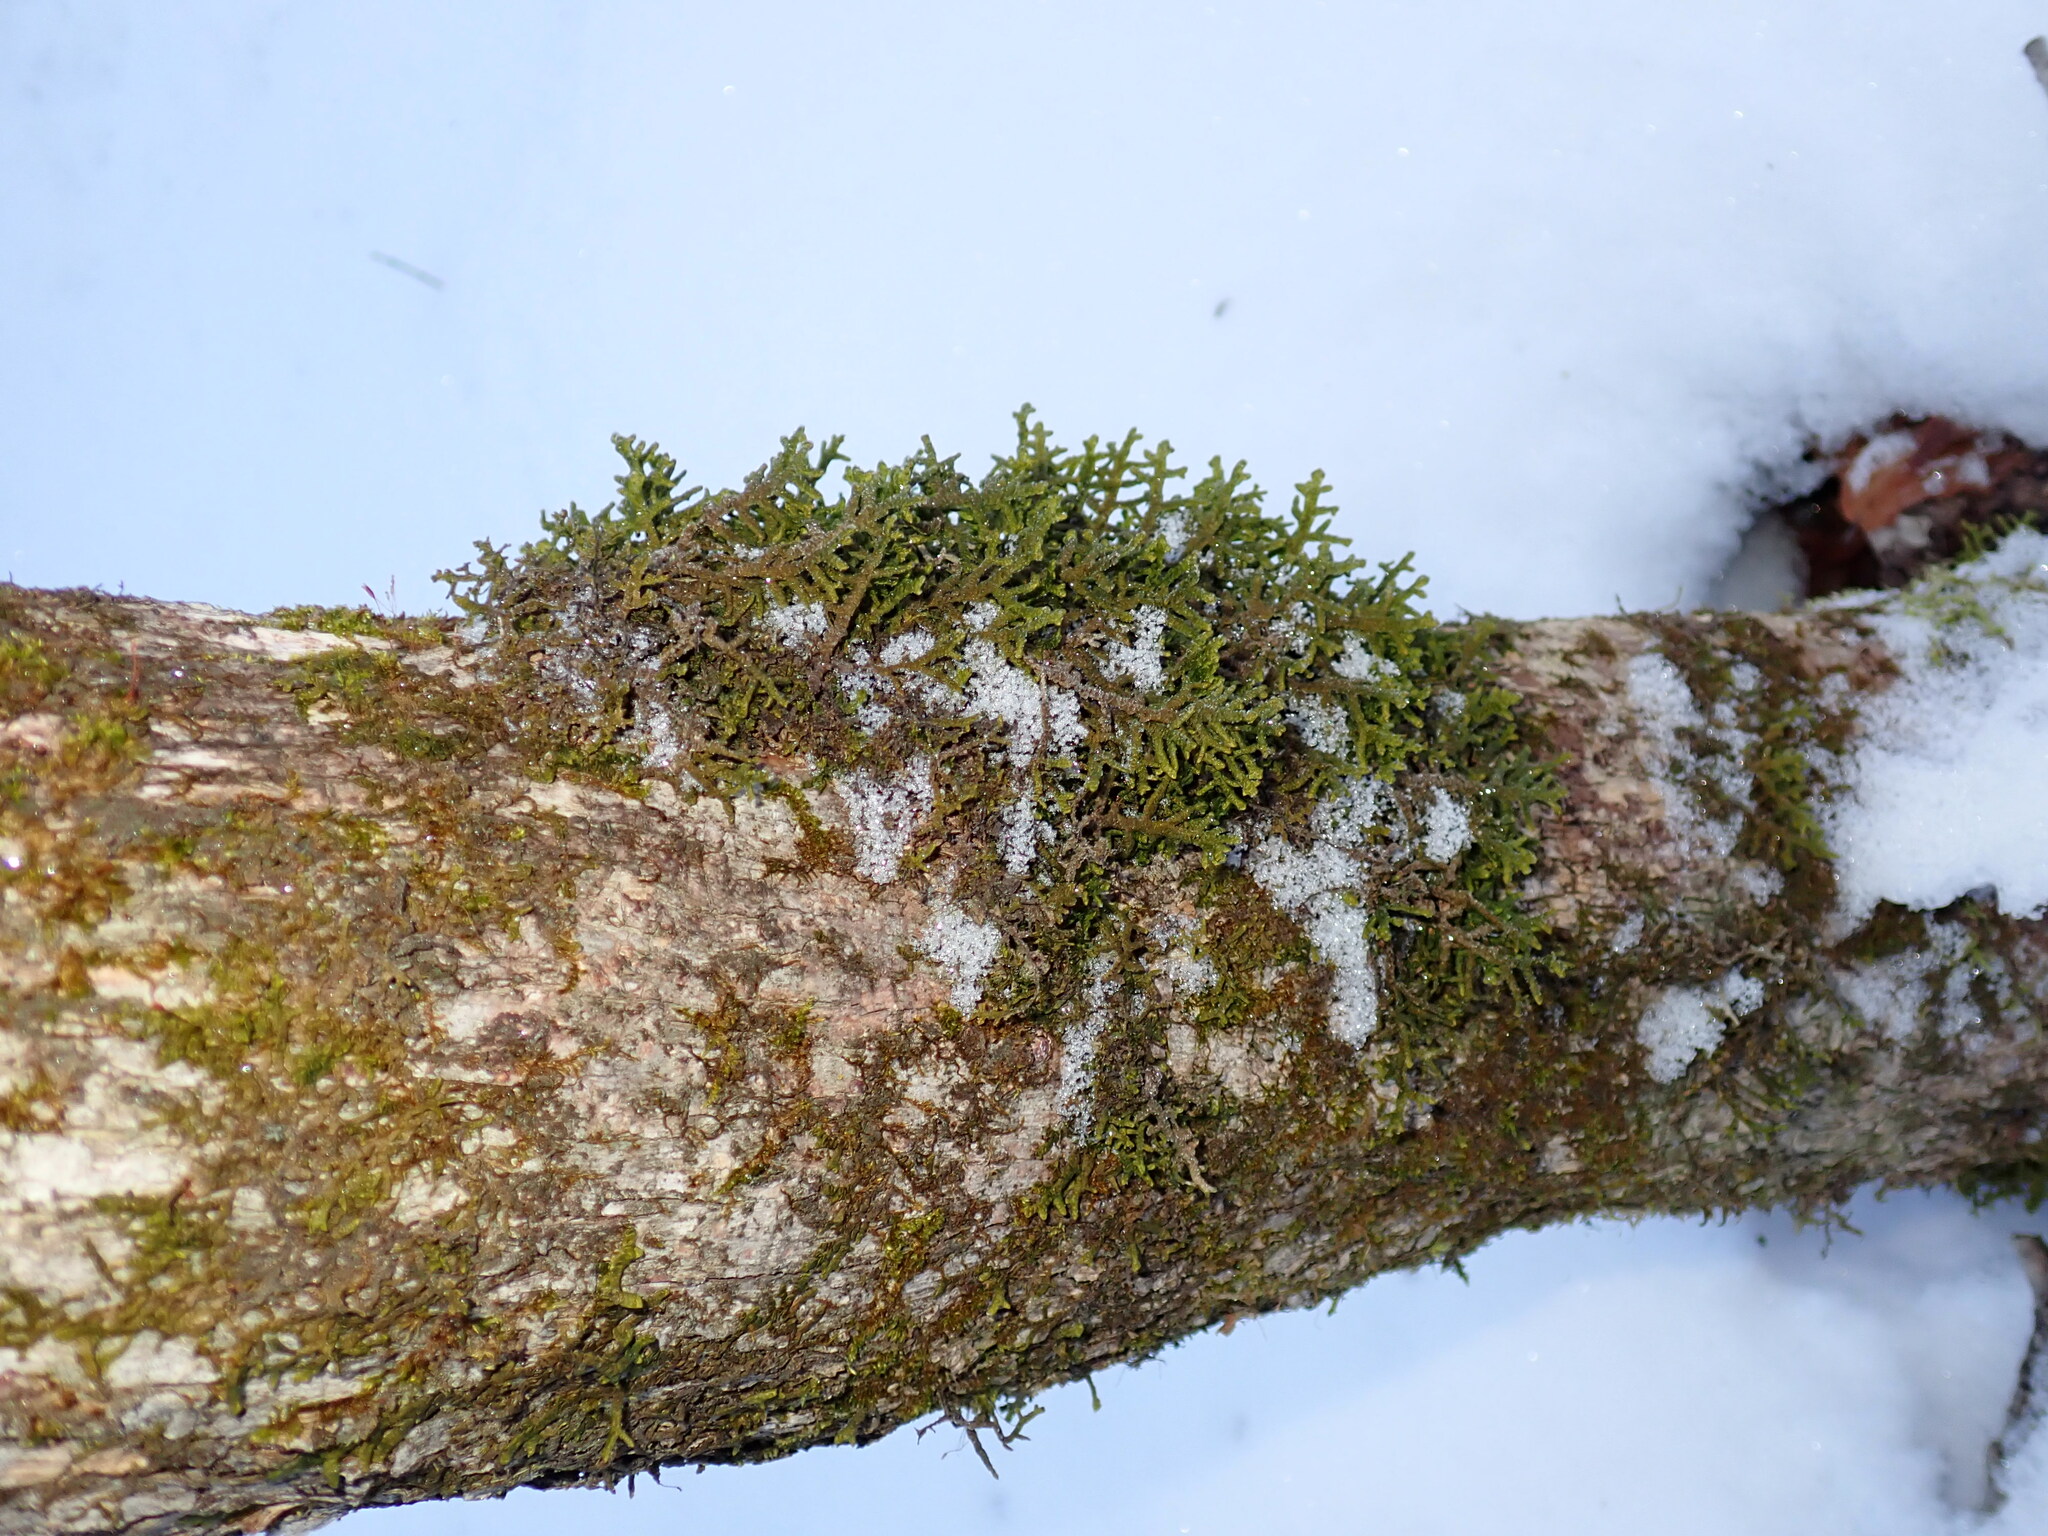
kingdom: Plantae
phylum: Marchantiophyta
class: Jungermanniopsida
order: Porellales
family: Porellaceae
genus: Porella
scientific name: Porella platyphylla
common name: Wall scalewort
